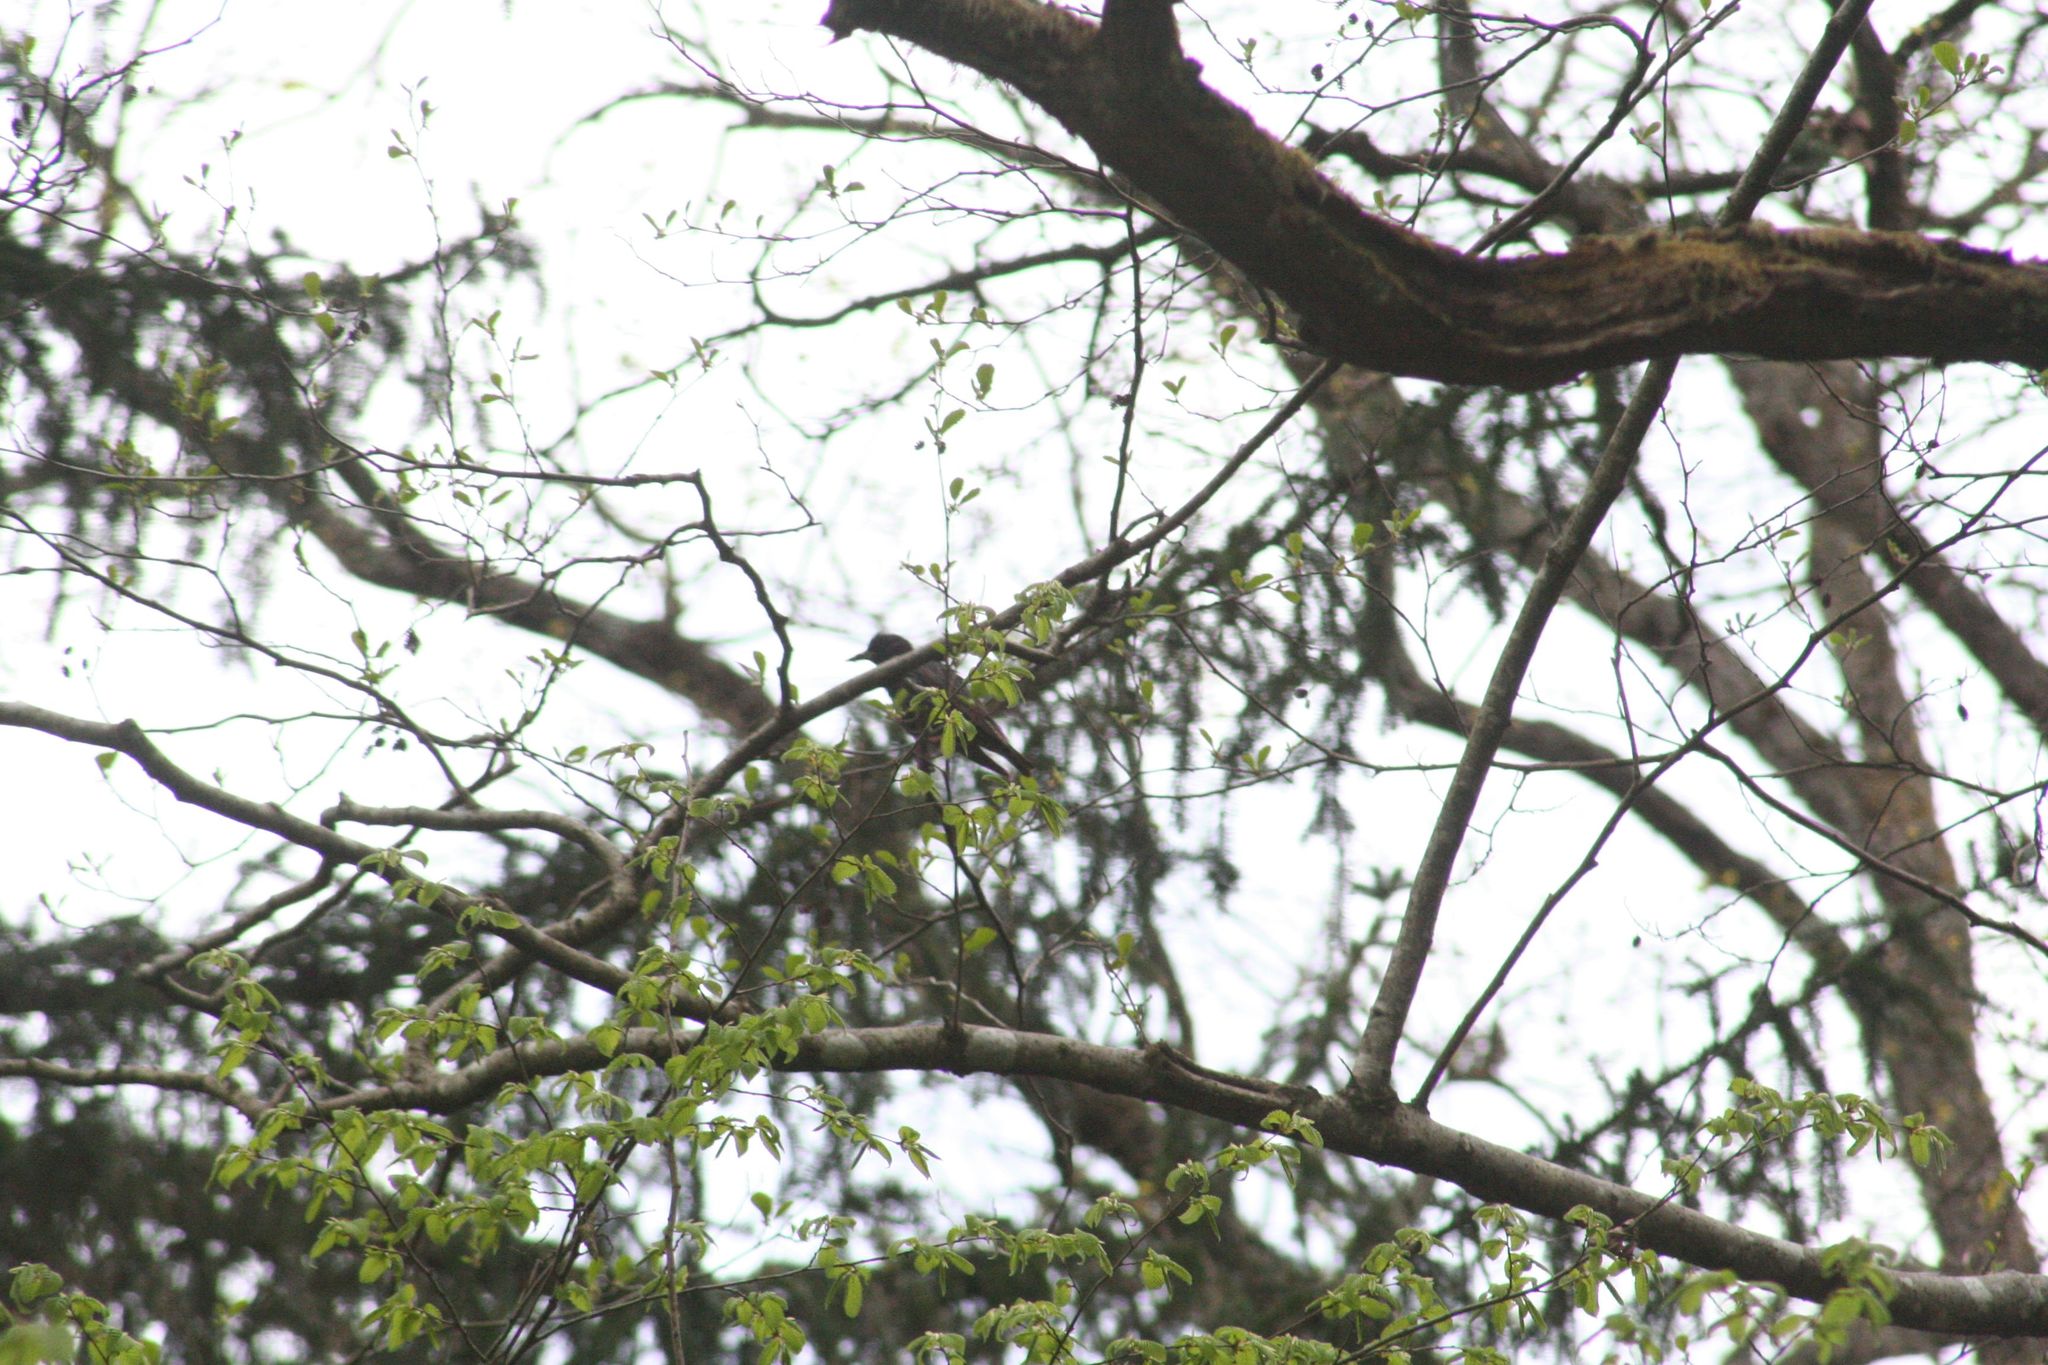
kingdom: Animalia
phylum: Chordata
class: Aves
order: Passeriformes
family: Sturnidae
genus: Sturnus
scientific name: Sturnus vulgaris
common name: Common starling
